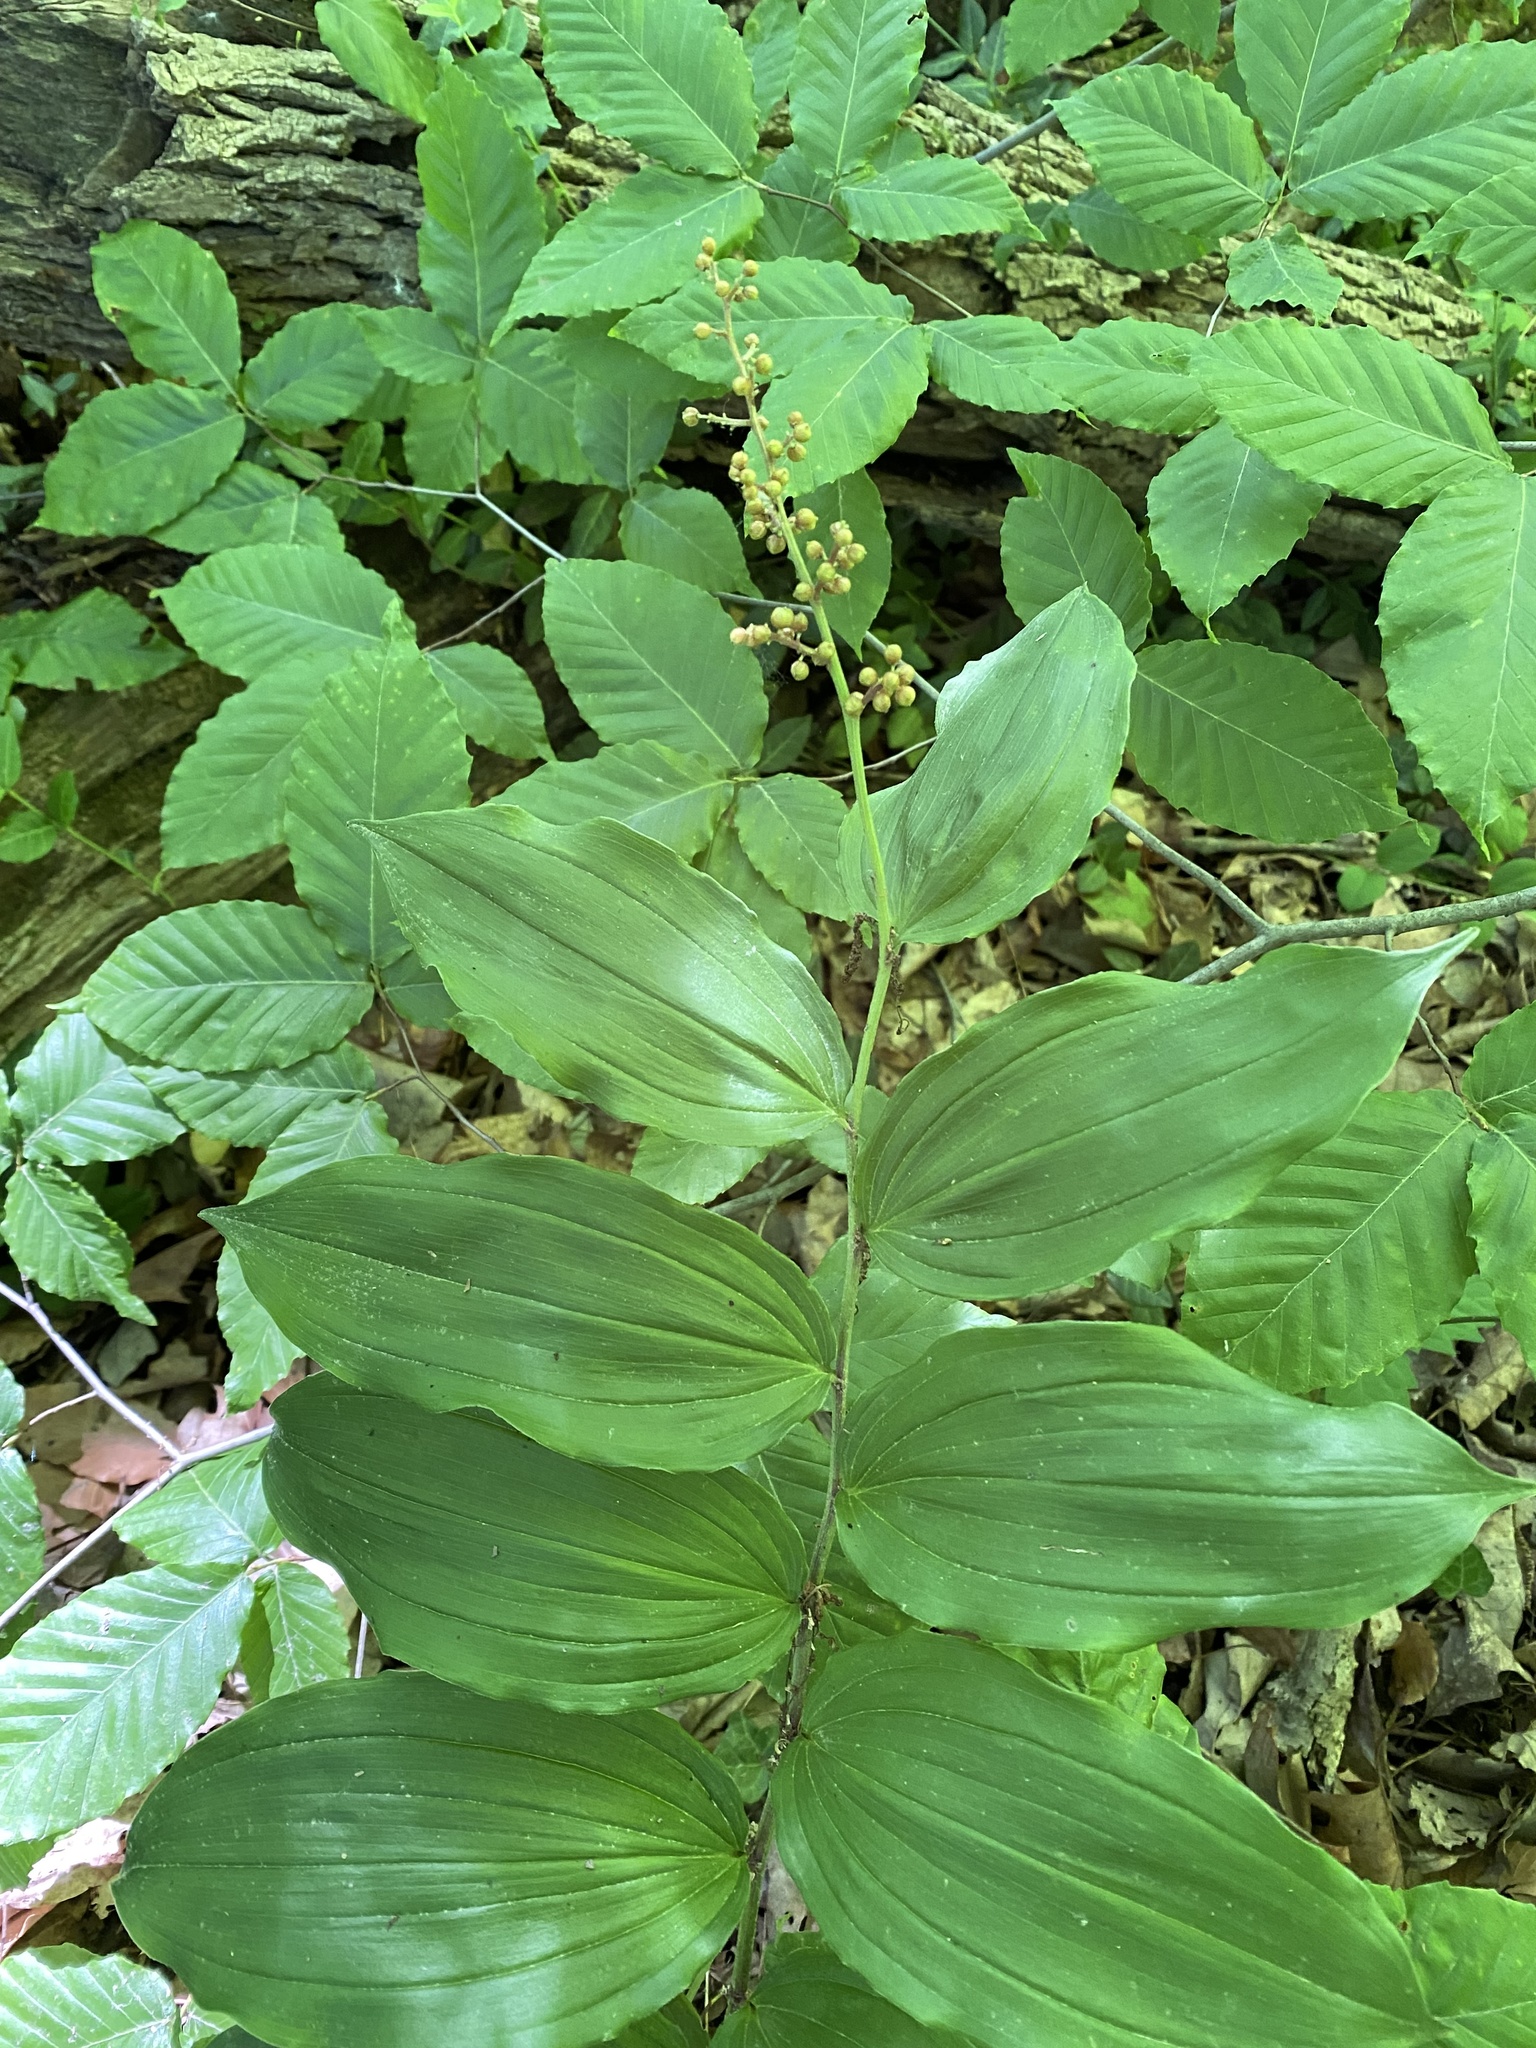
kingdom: Plantae
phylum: Tracheophyta
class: Liliopsida
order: Asparagales
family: Asparagaceae
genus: Maianthemum
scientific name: Maianthemum racemosum
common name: False spikenard
